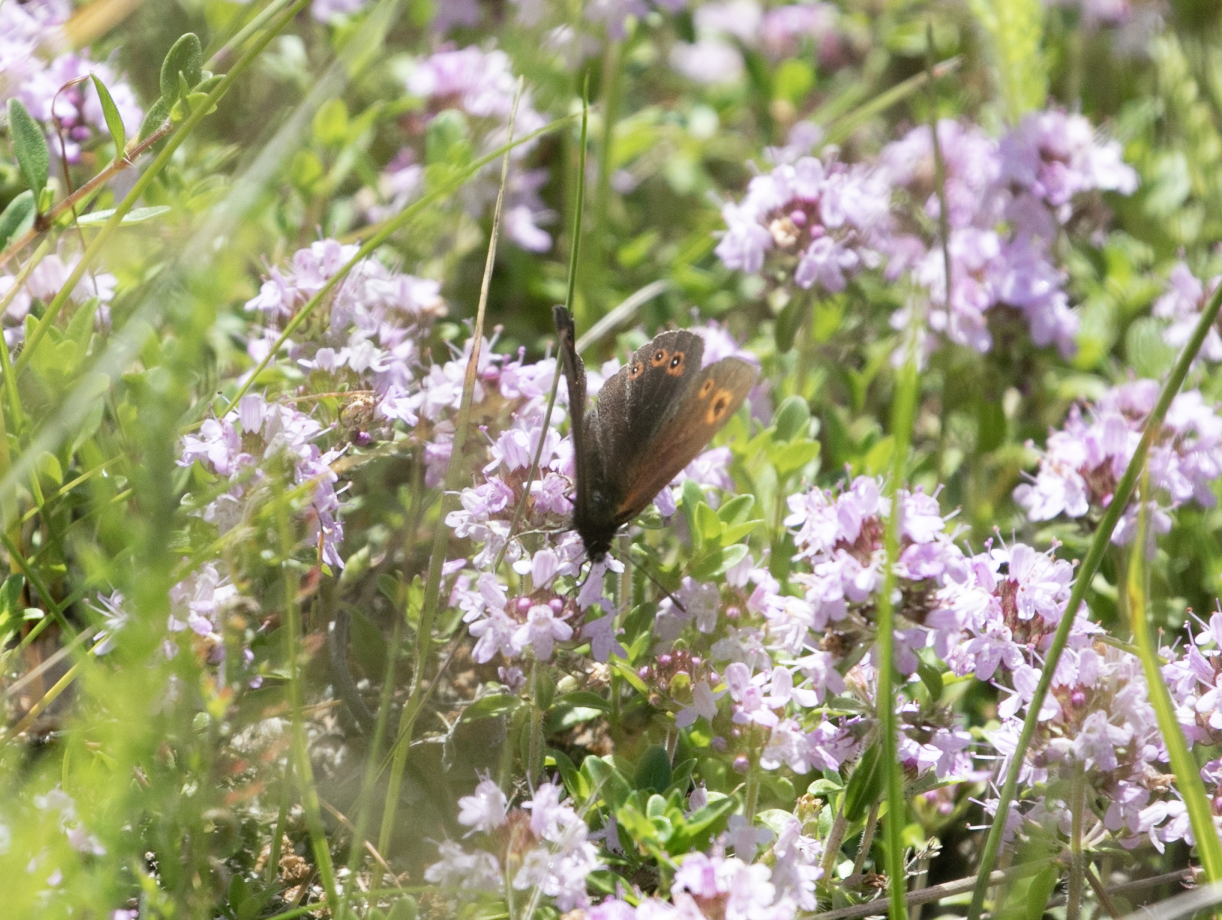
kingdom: Animalia
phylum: Arthropoda
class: Insecta
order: Lepidoptera
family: Nymphalidae
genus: Erebia
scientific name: Erebia medusa
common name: Woodland ringlet
